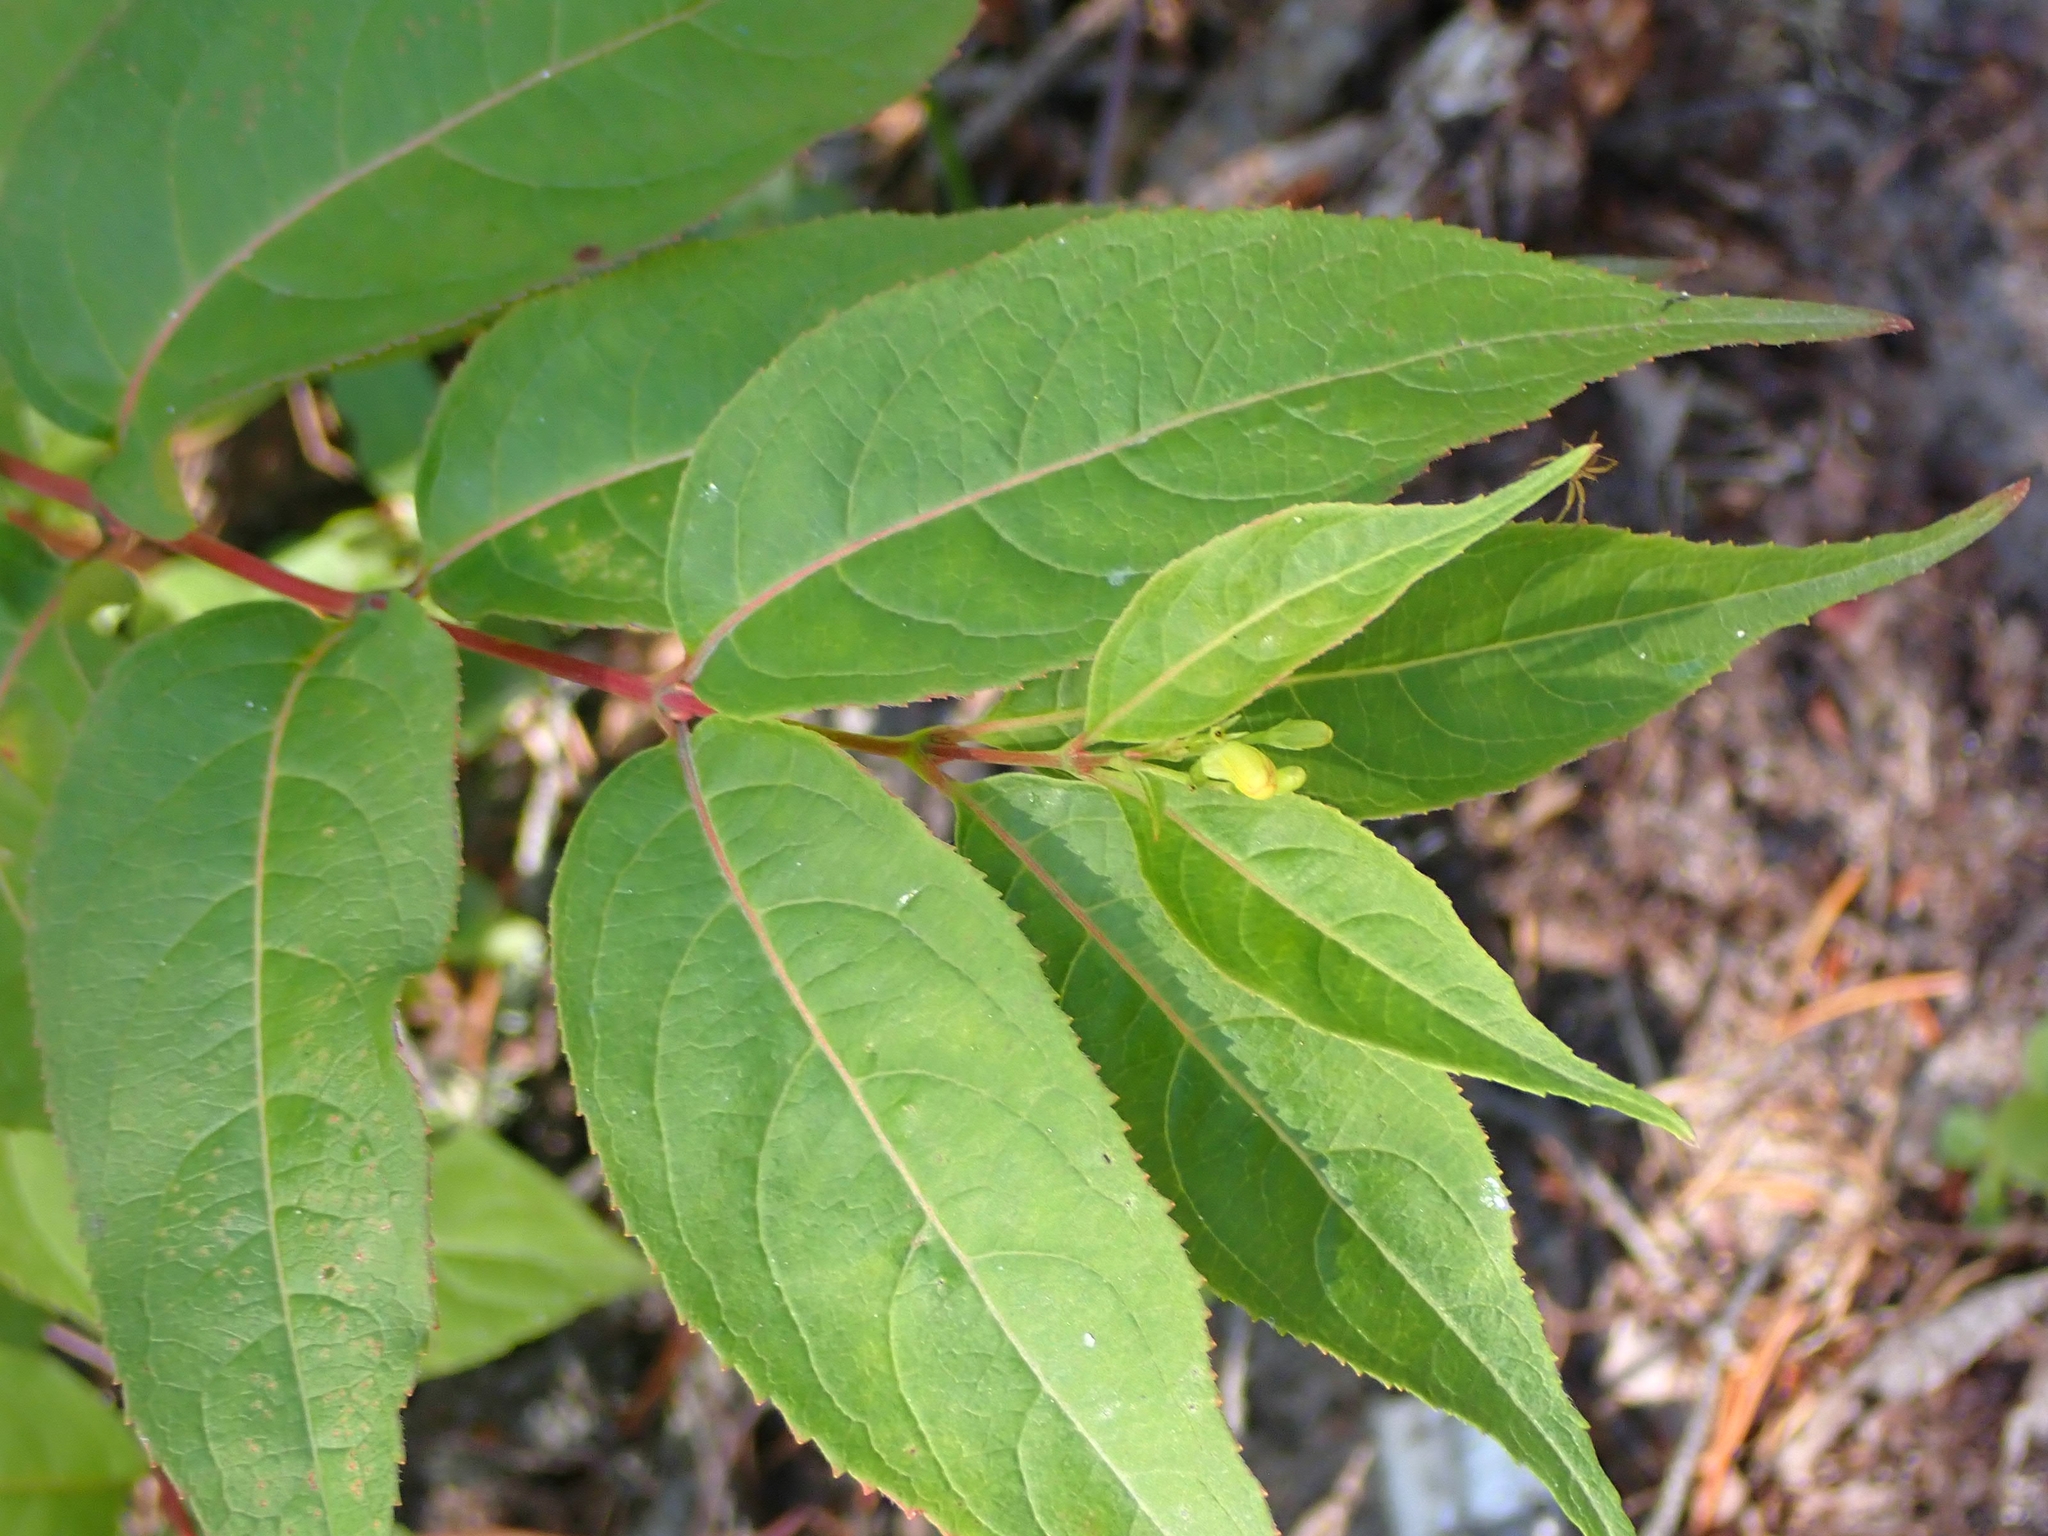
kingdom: Plantae
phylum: Tracheophyta
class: Magnoliopsida
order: Dipsacales
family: Caprifoliaceae
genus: Diervilla
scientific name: Diervilla lonicera
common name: Bush-honeysuckle
